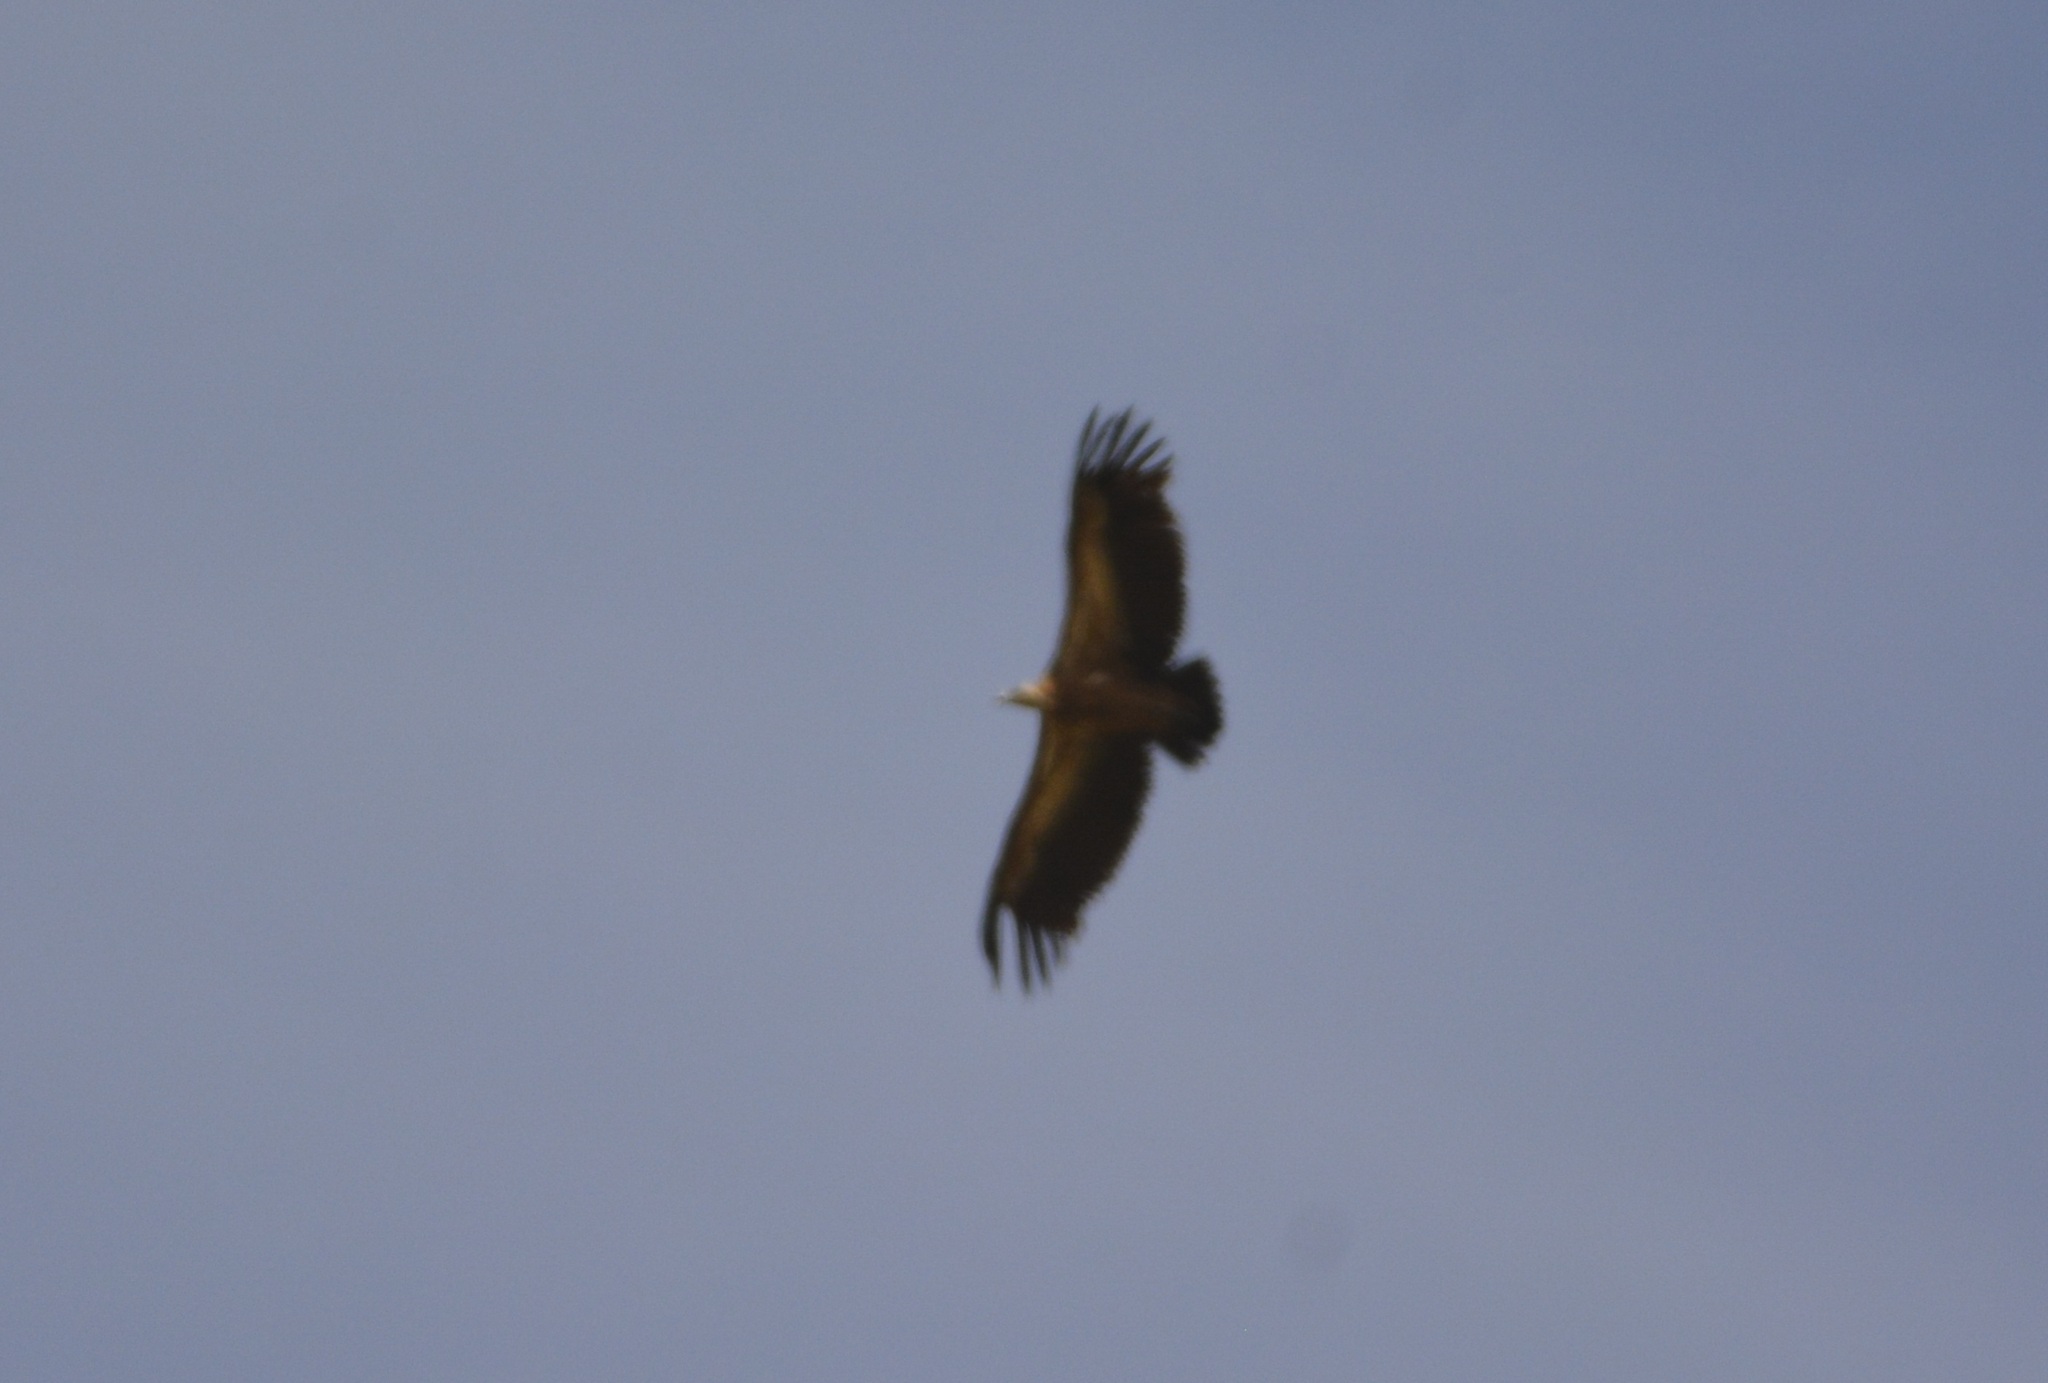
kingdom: Animalia
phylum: Chordata
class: Aves
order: Accipitriformes
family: Accipitridae
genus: Gyps
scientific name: Gyps fulvus
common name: Griffon vulture
